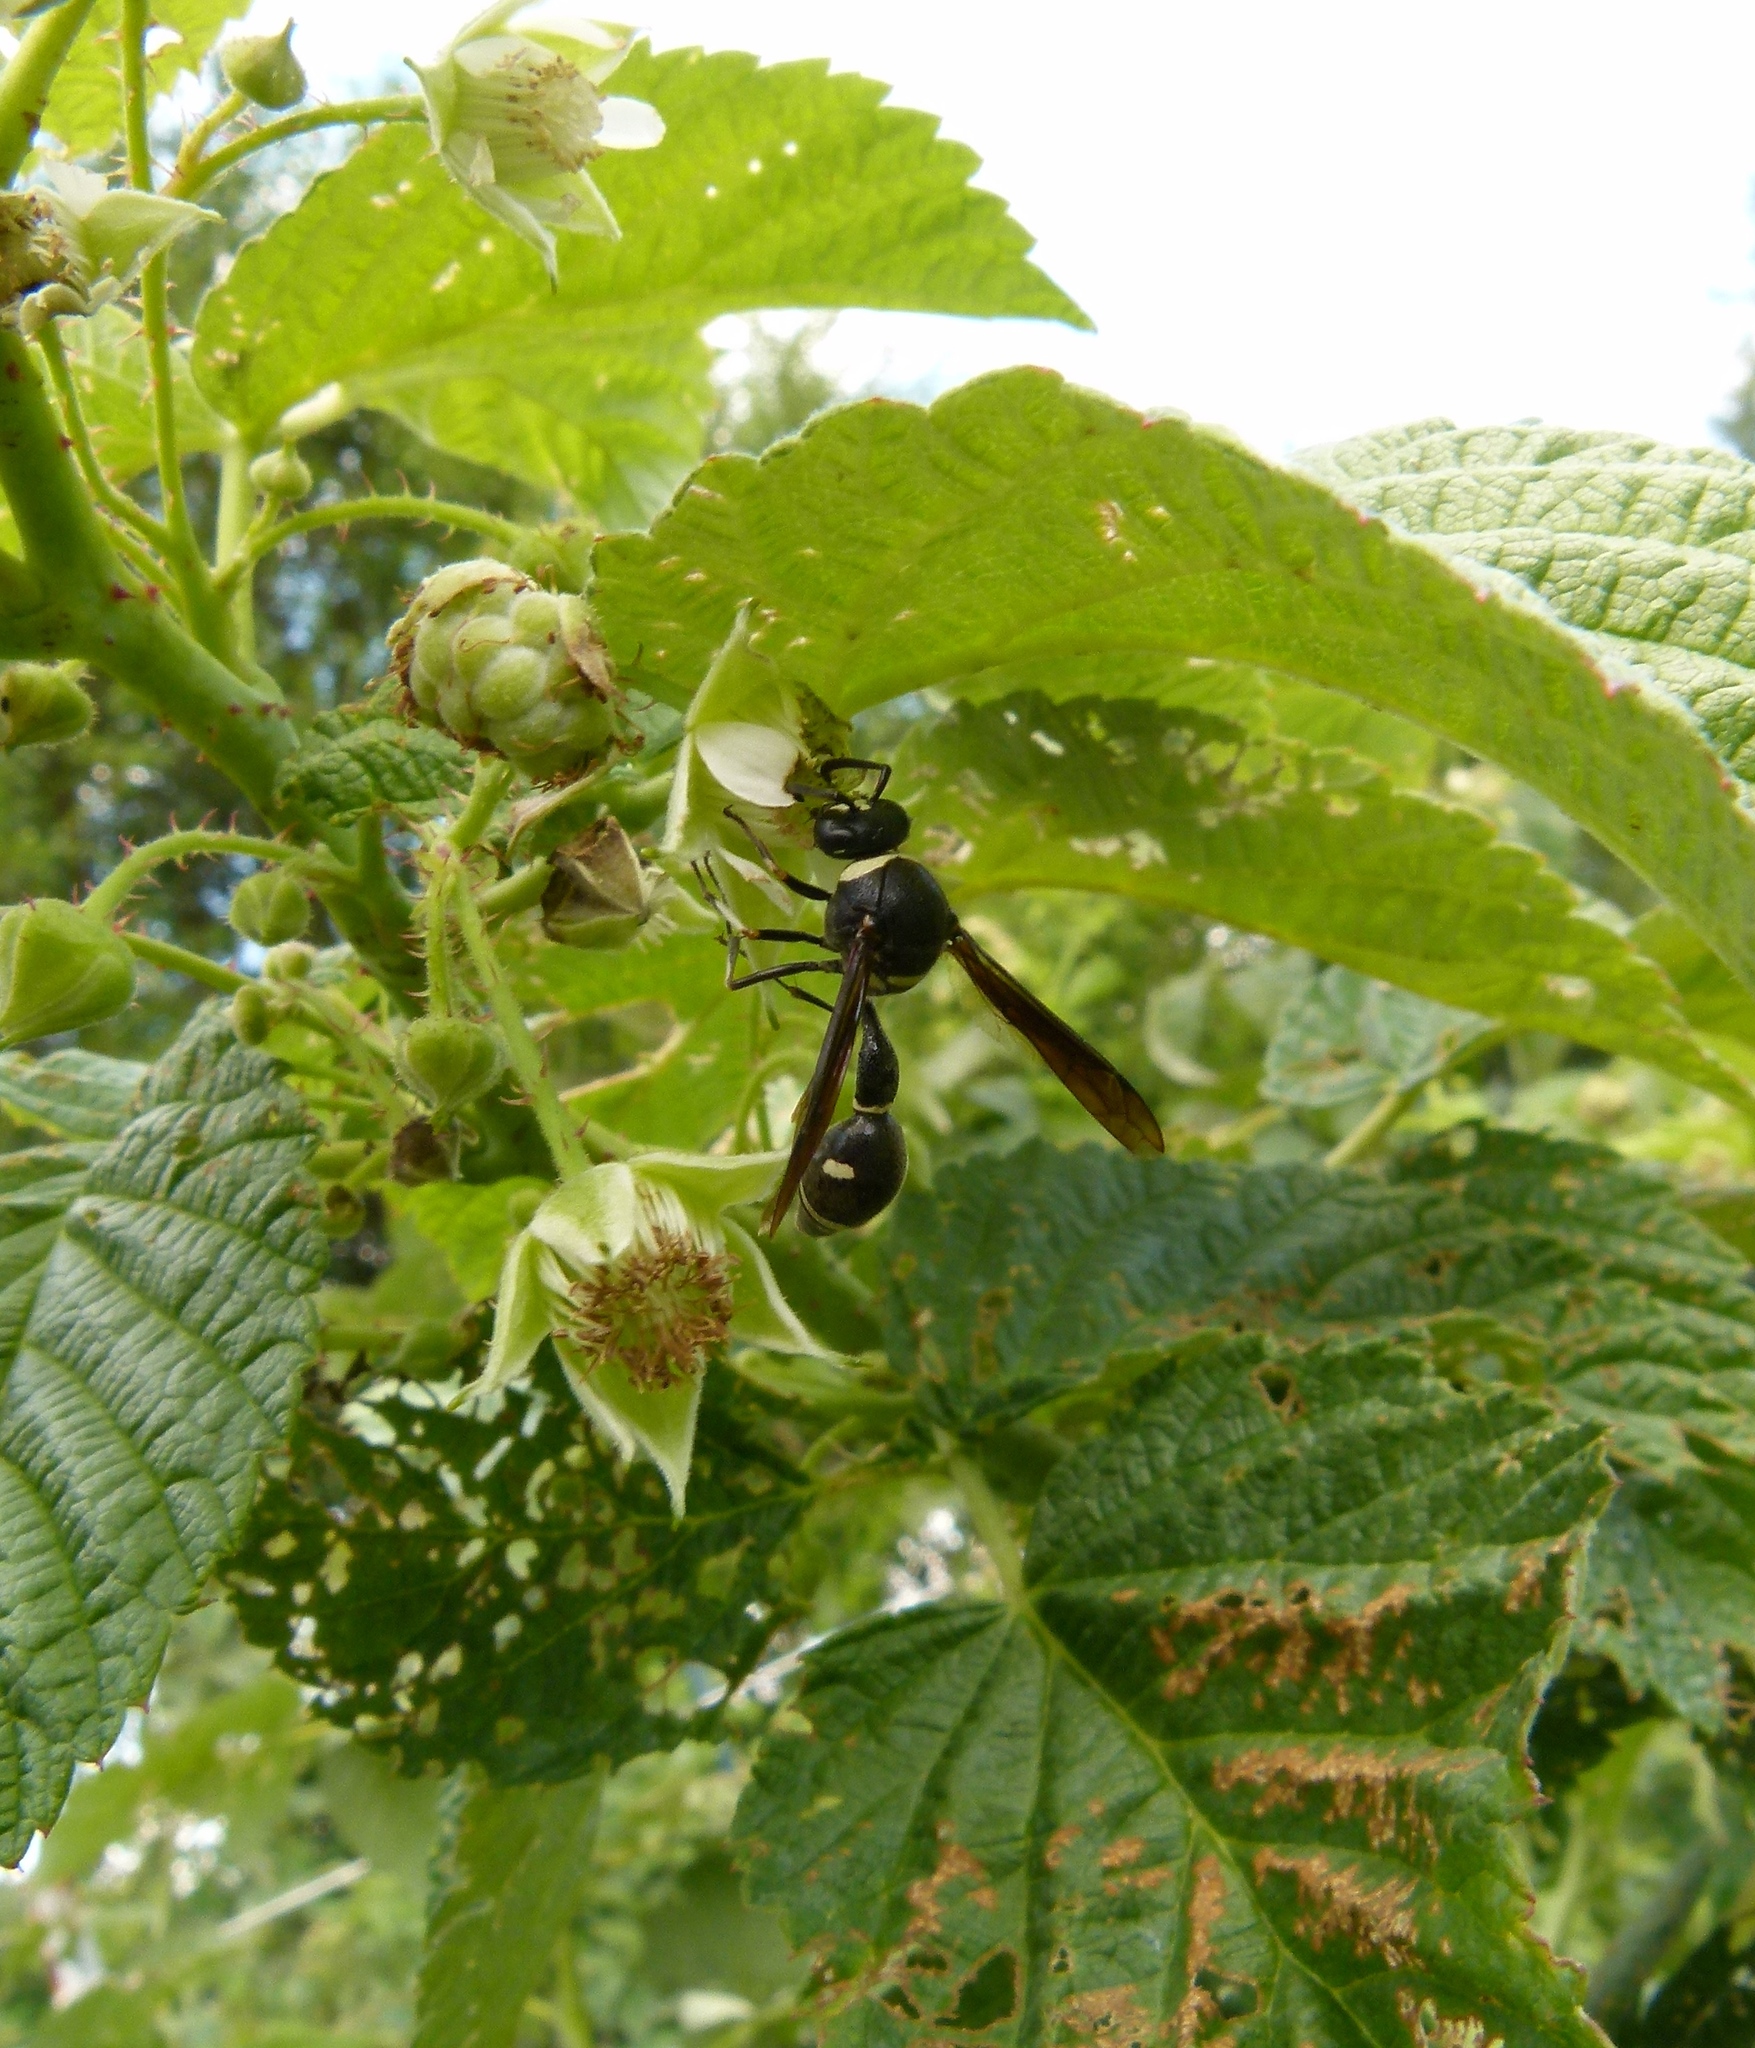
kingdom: Animalia
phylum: Arthropoda
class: Insecta
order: Hymenoptera
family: Vespidae
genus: Eumenes
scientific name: Eumenes fraternus
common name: Fraternal potter wasp
